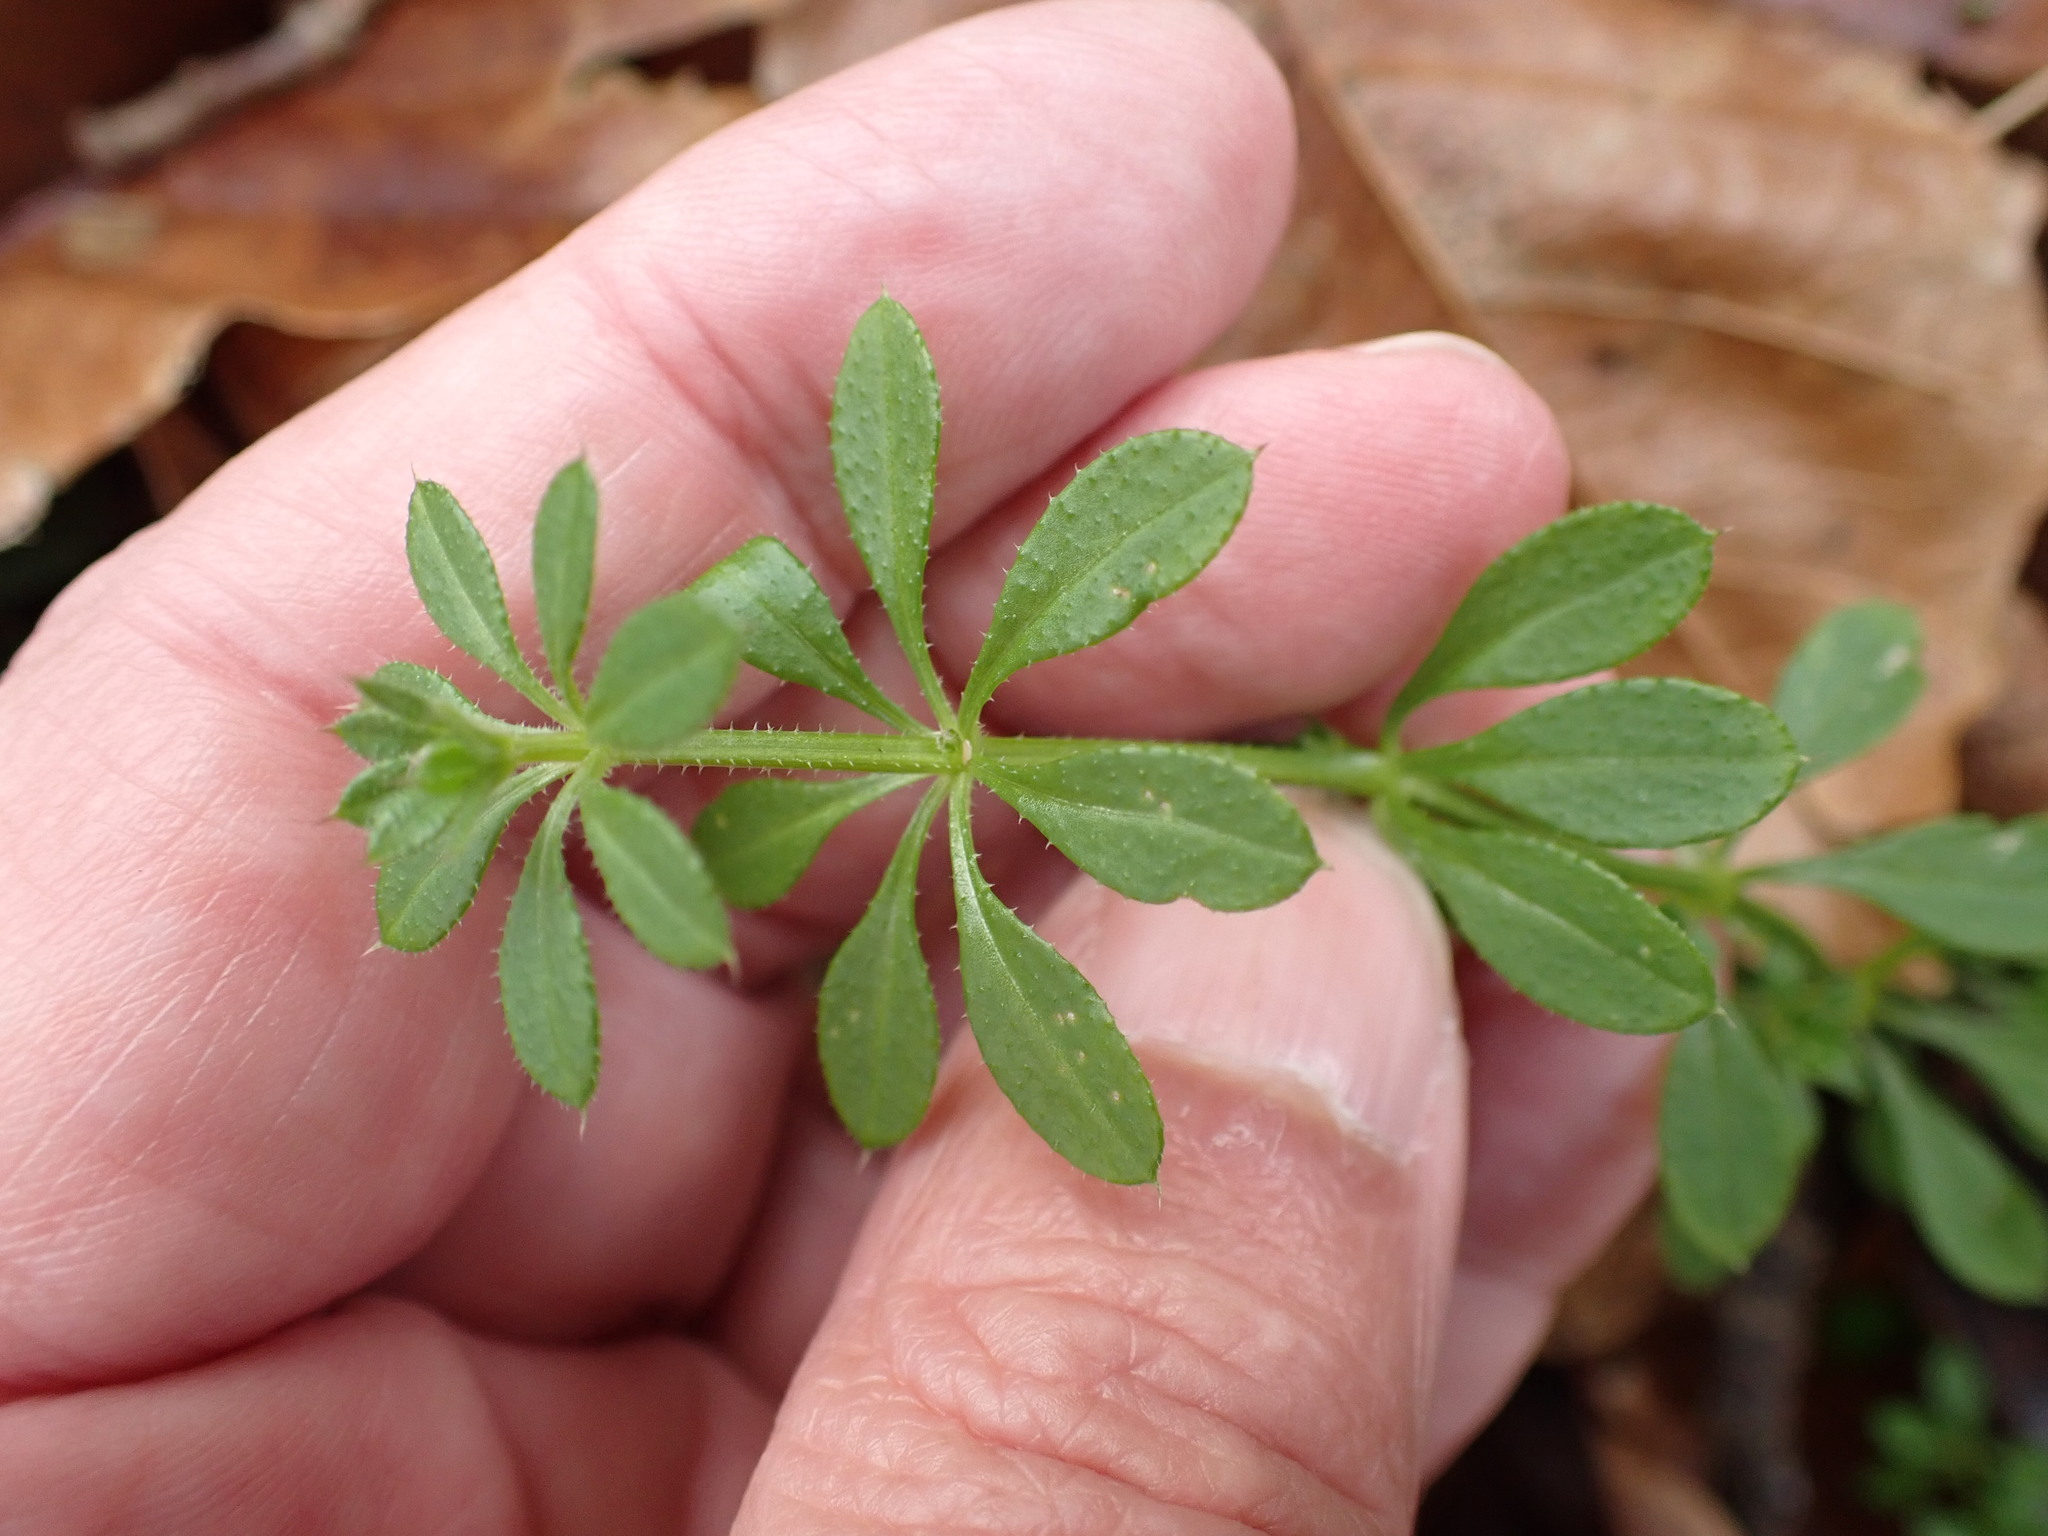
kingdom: Plantae
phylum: Tracheophyta
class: Magnoliopsida
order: Gentianales
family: Rubiaceae
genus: Galium
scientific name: Galium aparine
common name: Cleavers
